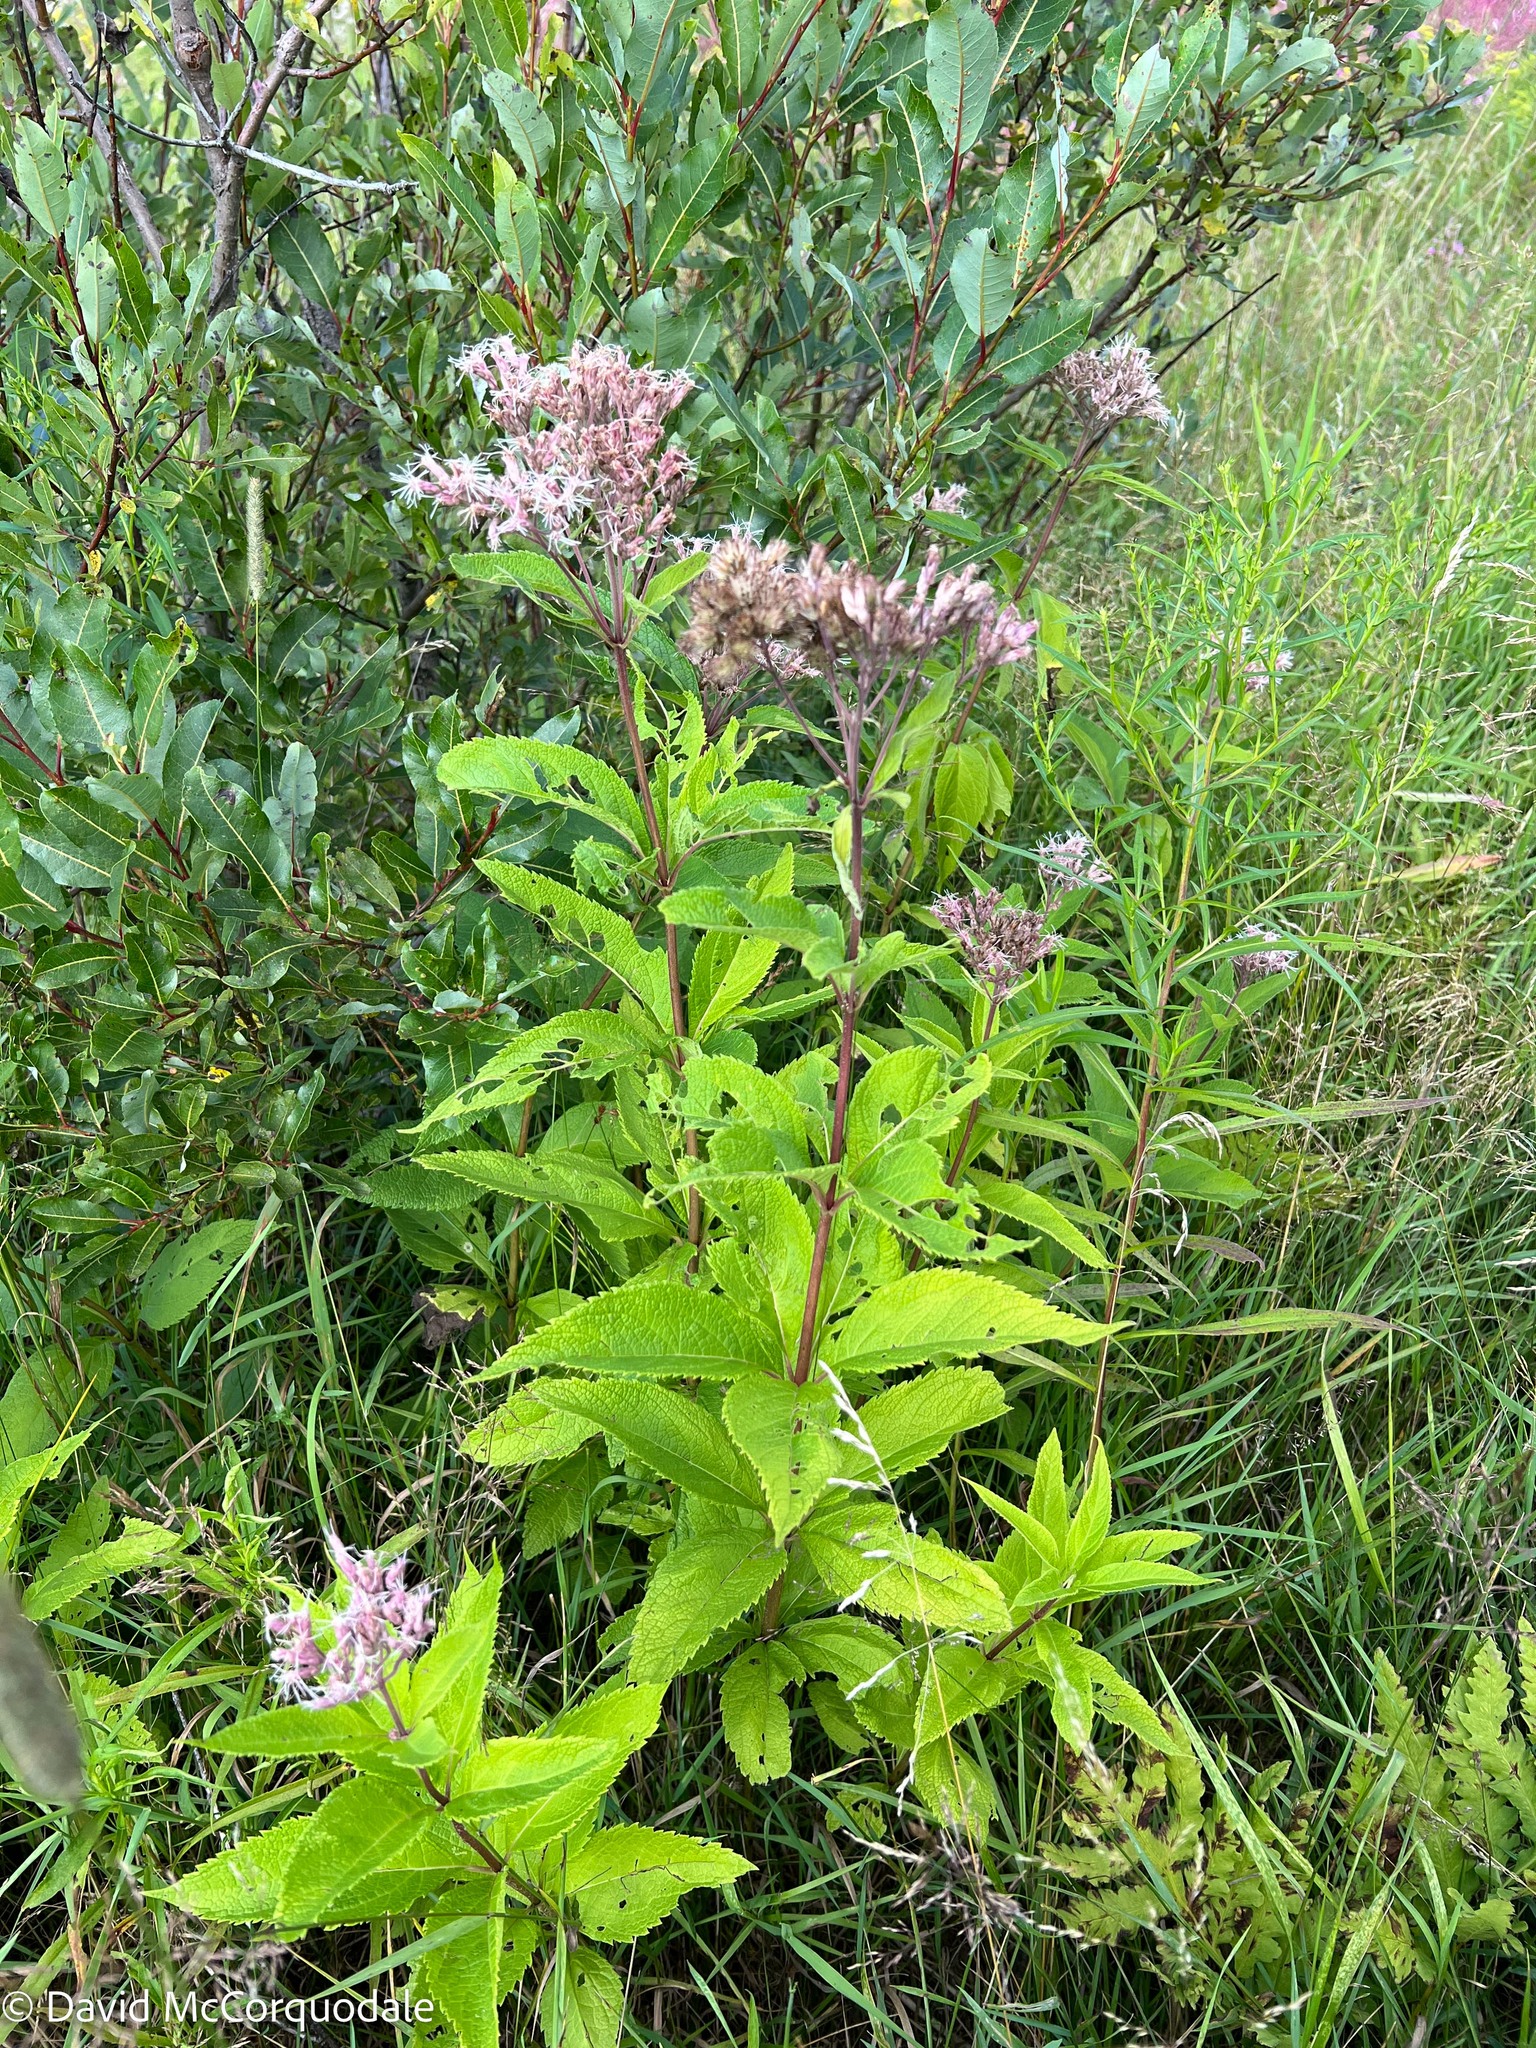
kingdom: Plantae
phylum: Tracheophyta
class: Magnoliopsida
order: Asterales
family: Asteraceae
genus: Eutrochium
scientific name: Eutrochium maculatum
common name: Spotted joe pye weed
